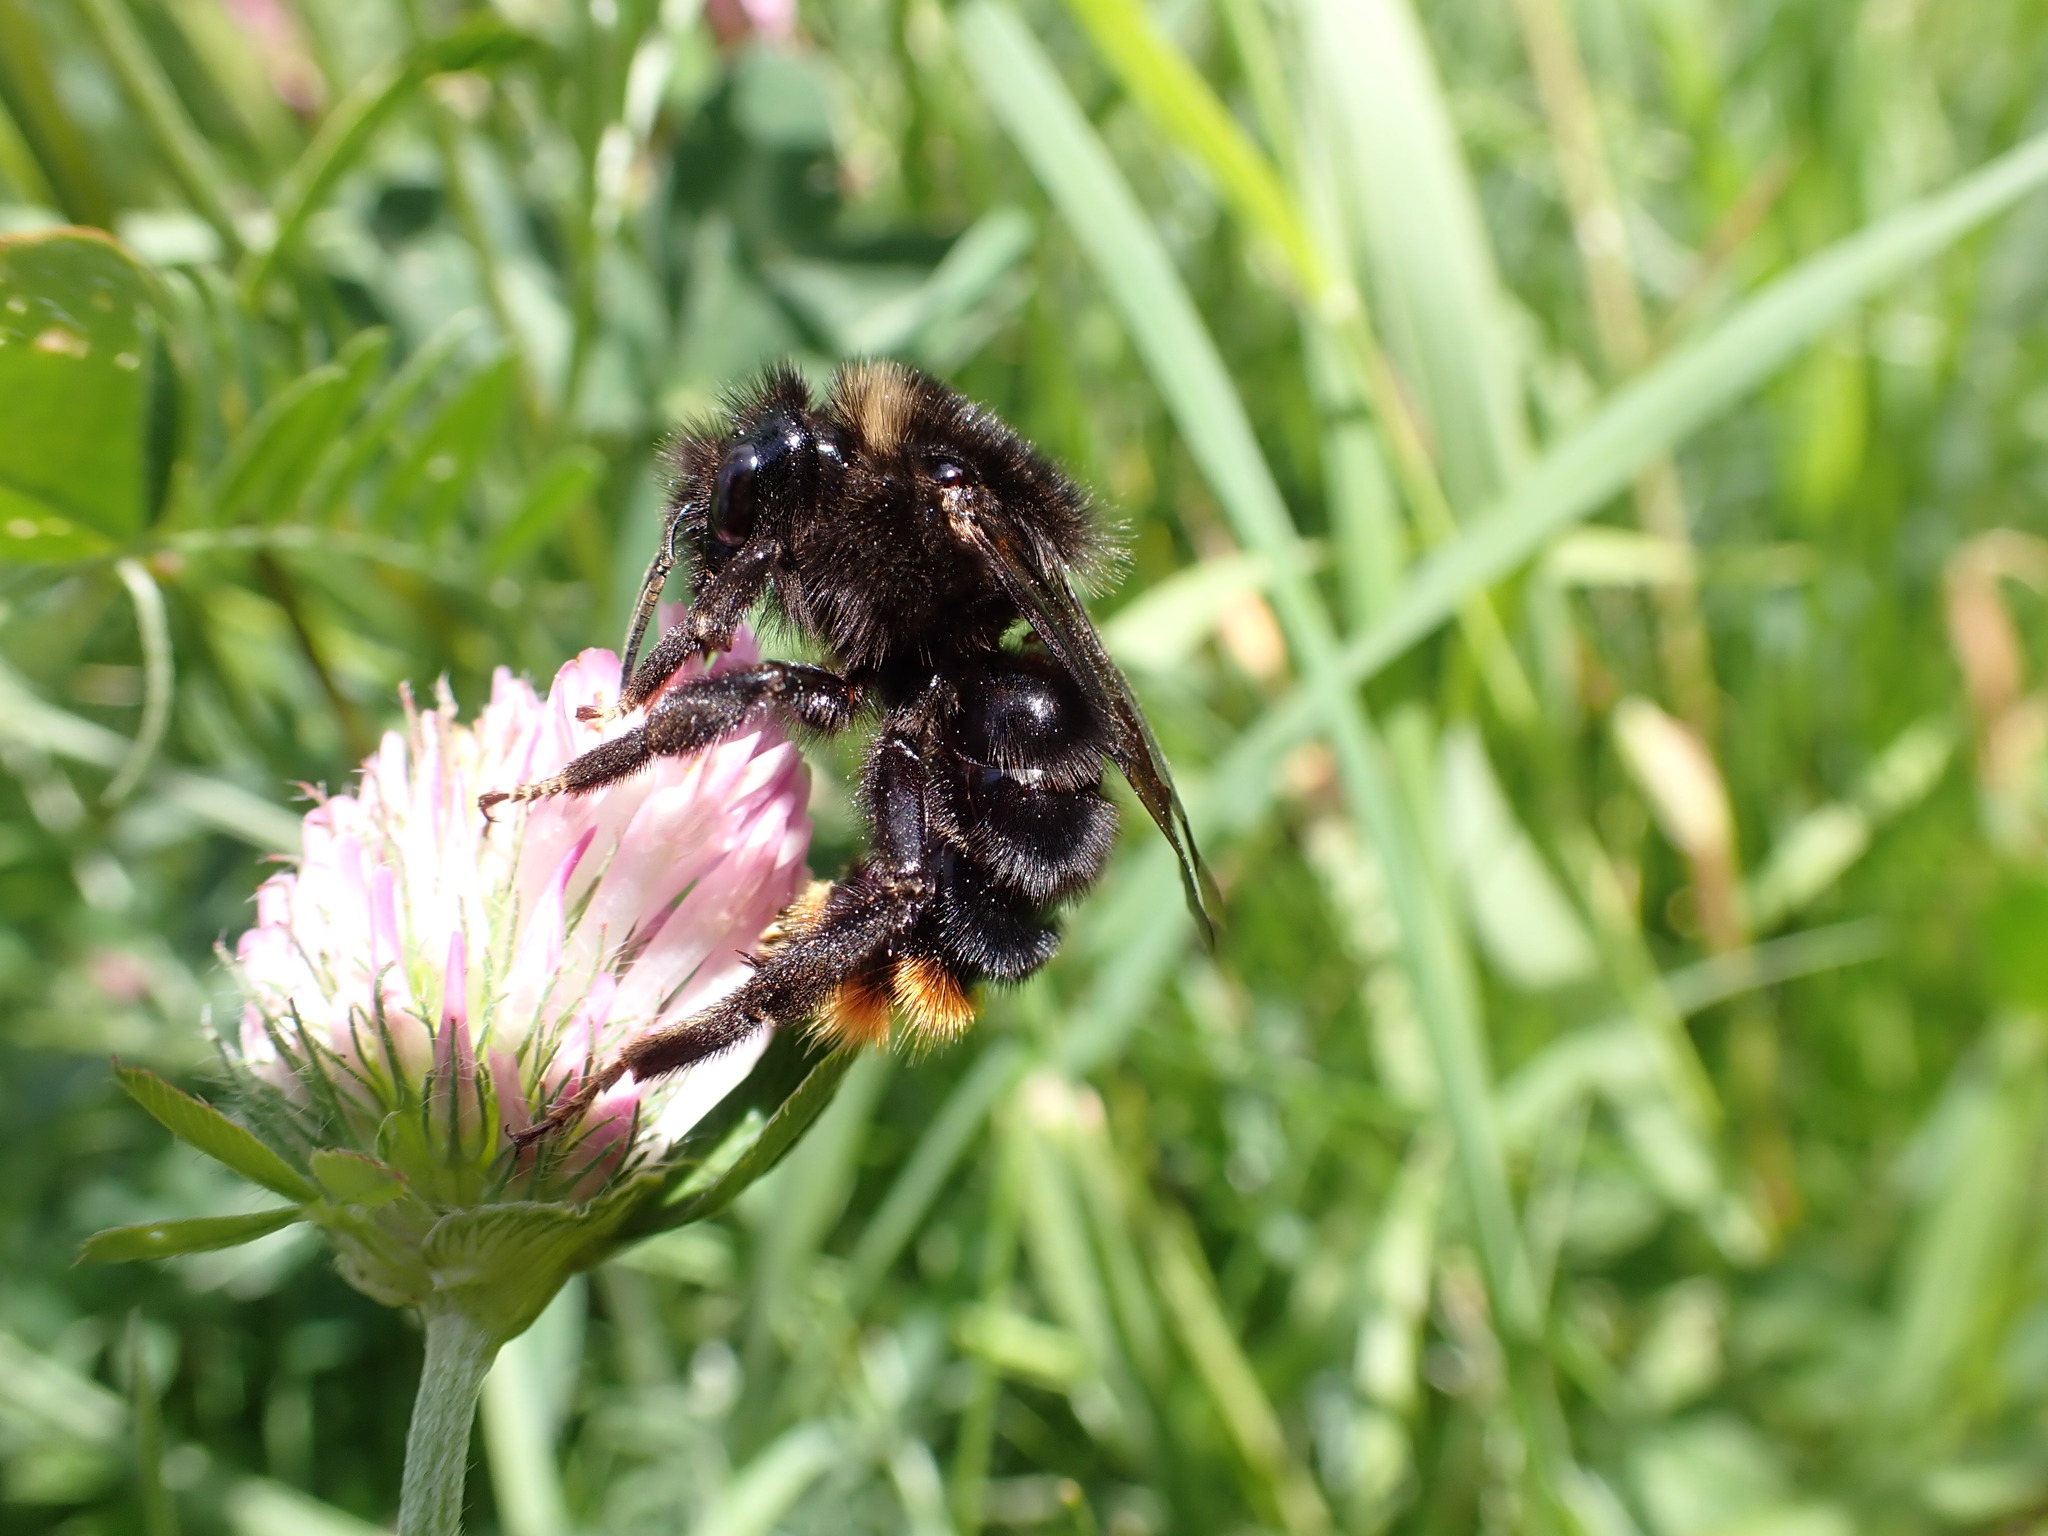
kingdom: Animalia
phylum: Arthropoda
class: Insecta
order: Hymenoptera
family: Apidae
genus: Bombus
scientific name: Bombus rupestris
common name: Hill cuckoo-bee
